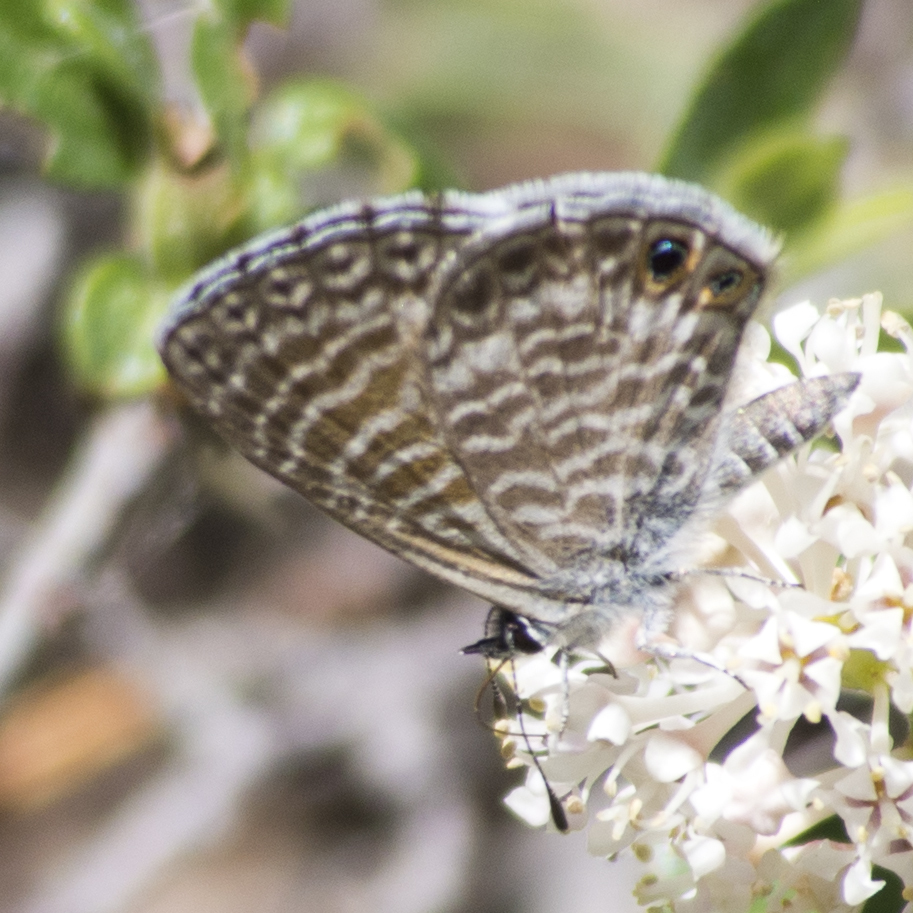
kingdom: Animalia
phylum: Arthropoda
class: Insecta
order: Lepidoptera
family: Lycaenidae
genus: Leptotes
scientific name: Leptotes marina
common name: Marine blue
